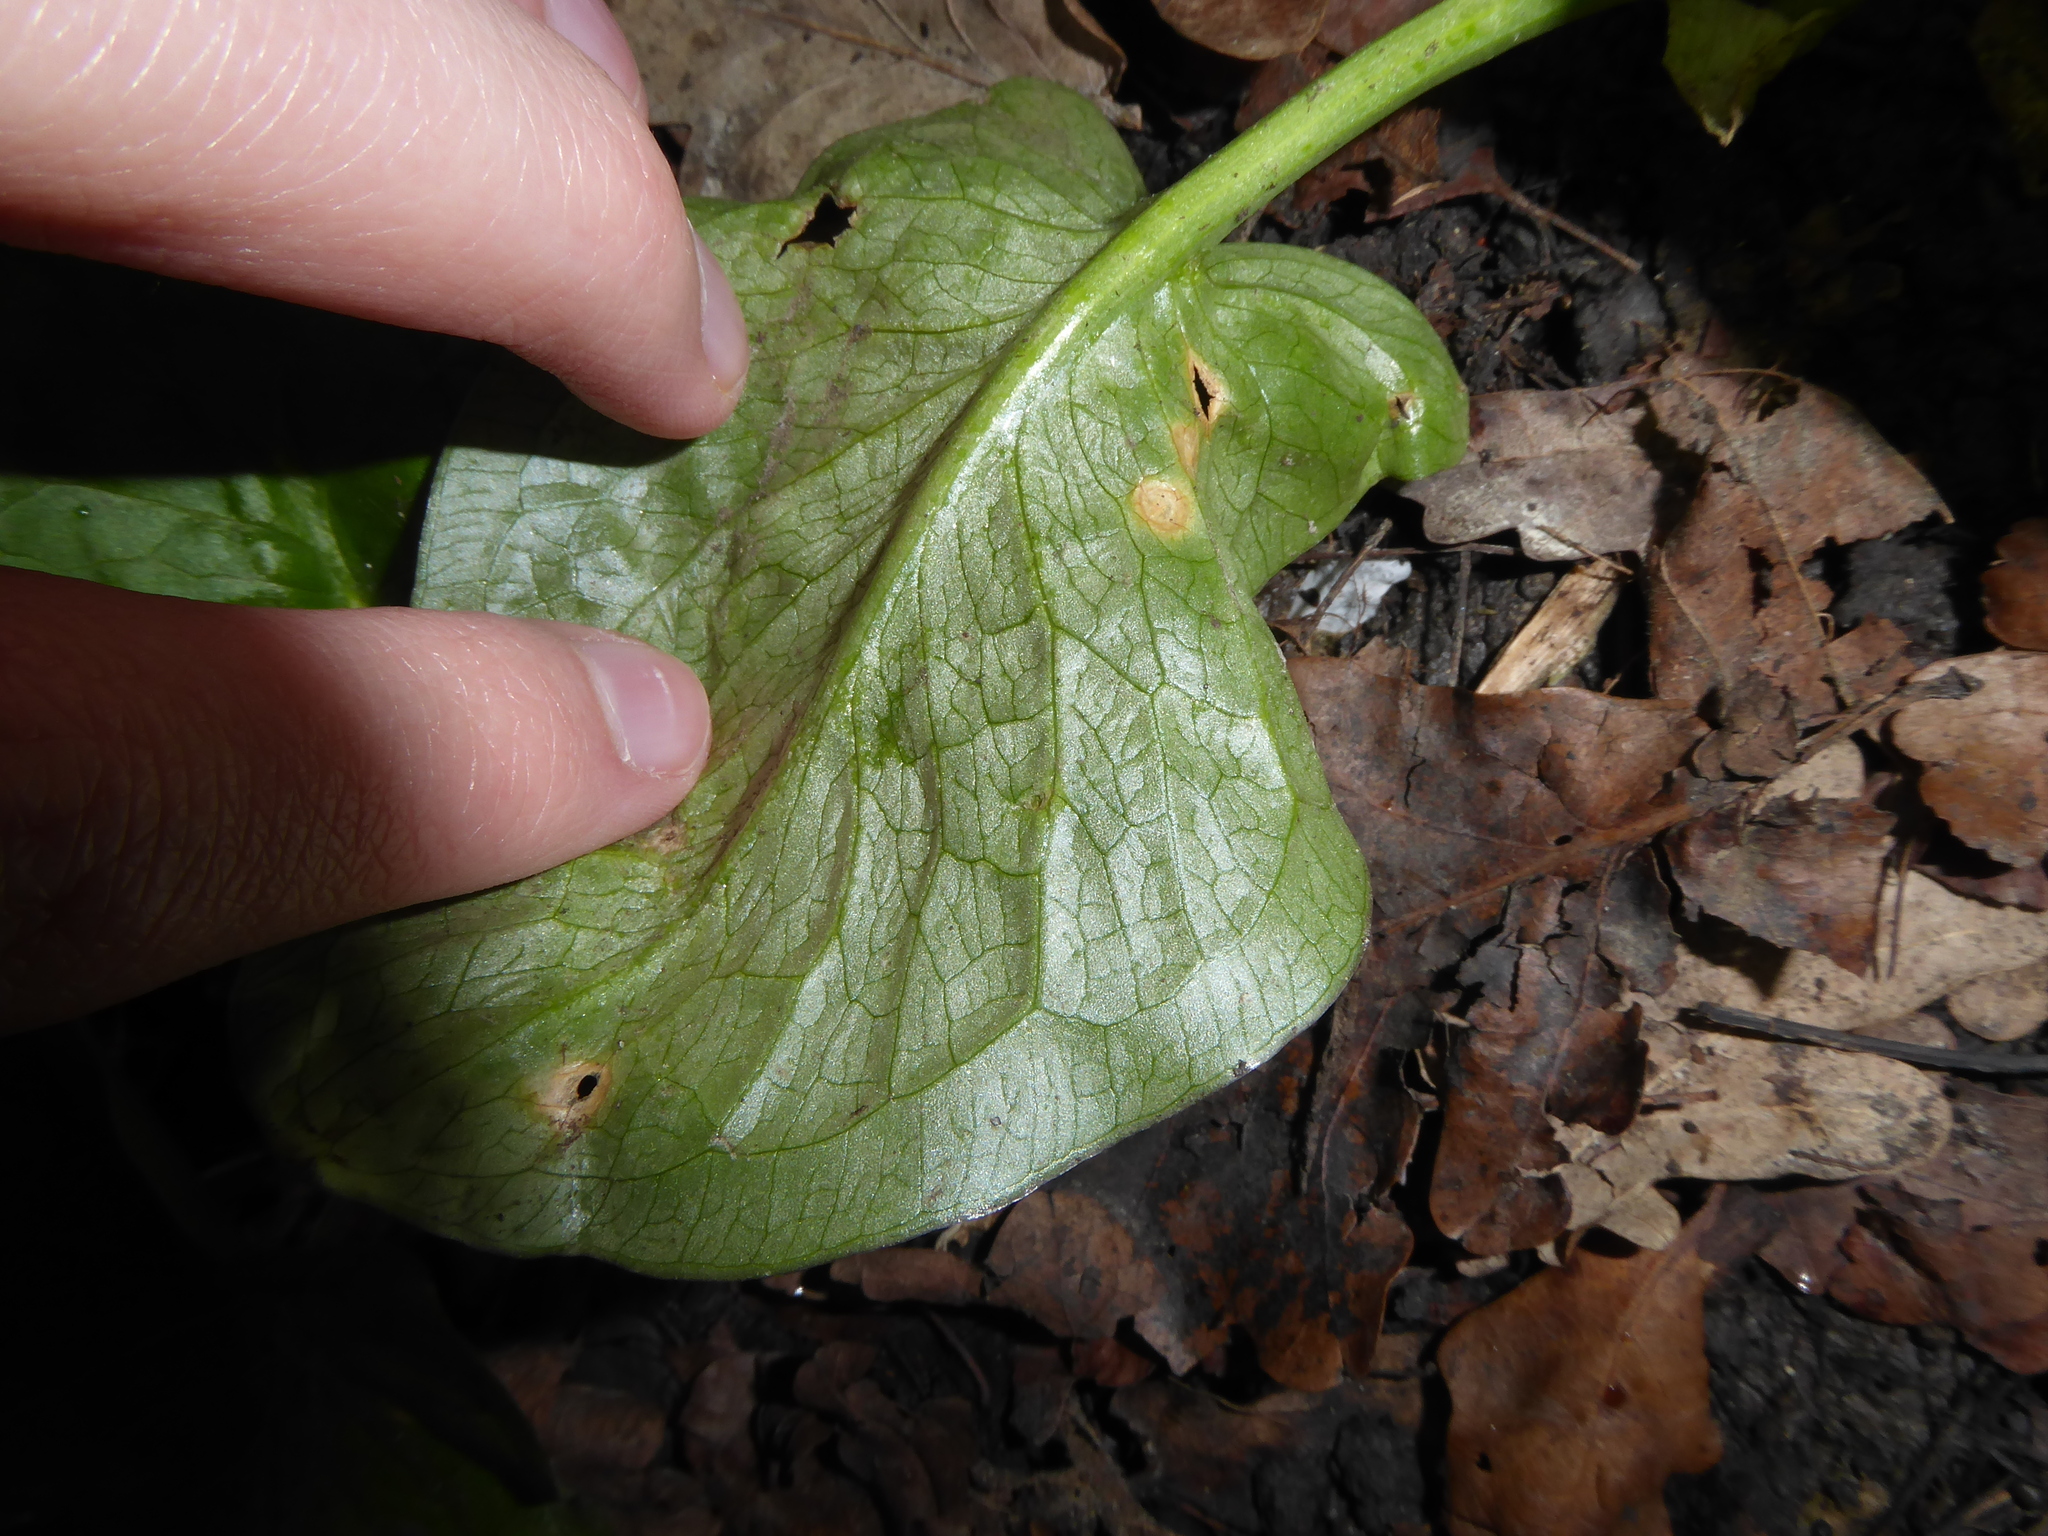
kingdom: Fungi
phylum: Ascomycota
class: Sordariomycetes
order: Glomerellales
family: Plectosphaerellaceae
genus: Spermosporina
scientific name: Spermosporina aricola
